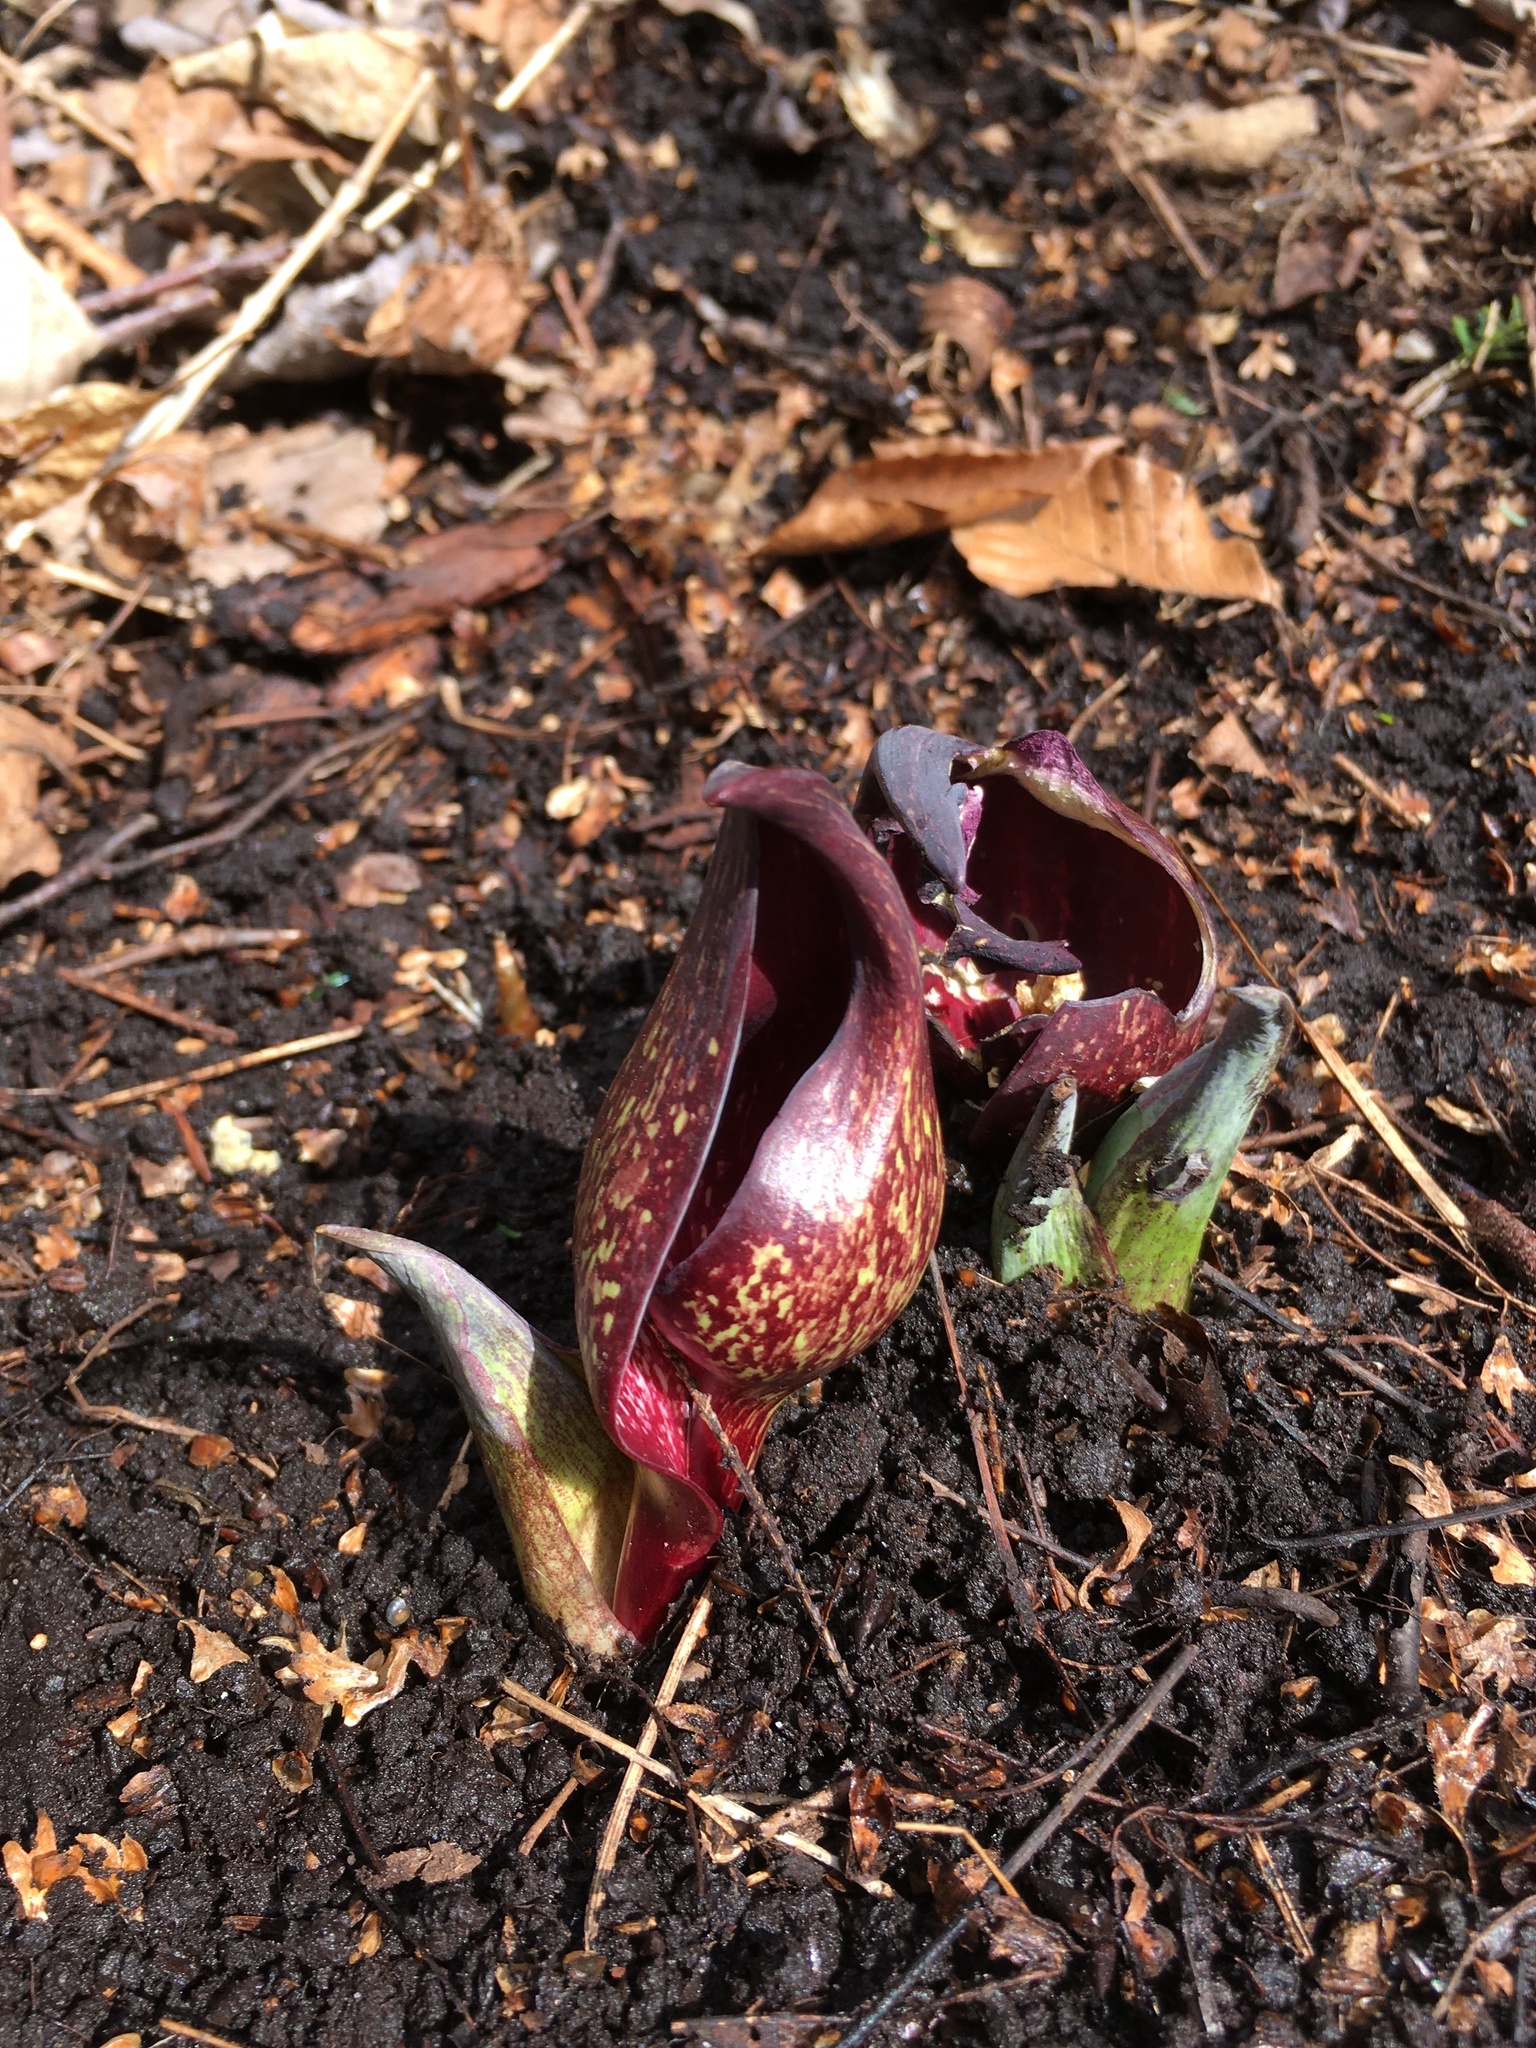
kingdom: Plantae
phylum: Tracheophyta
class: Liliopsida
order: Alismatales
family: Araceae
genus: Symplocarpus
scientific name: Symplocarpus foetidus
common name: Eastern skunk cabbage
